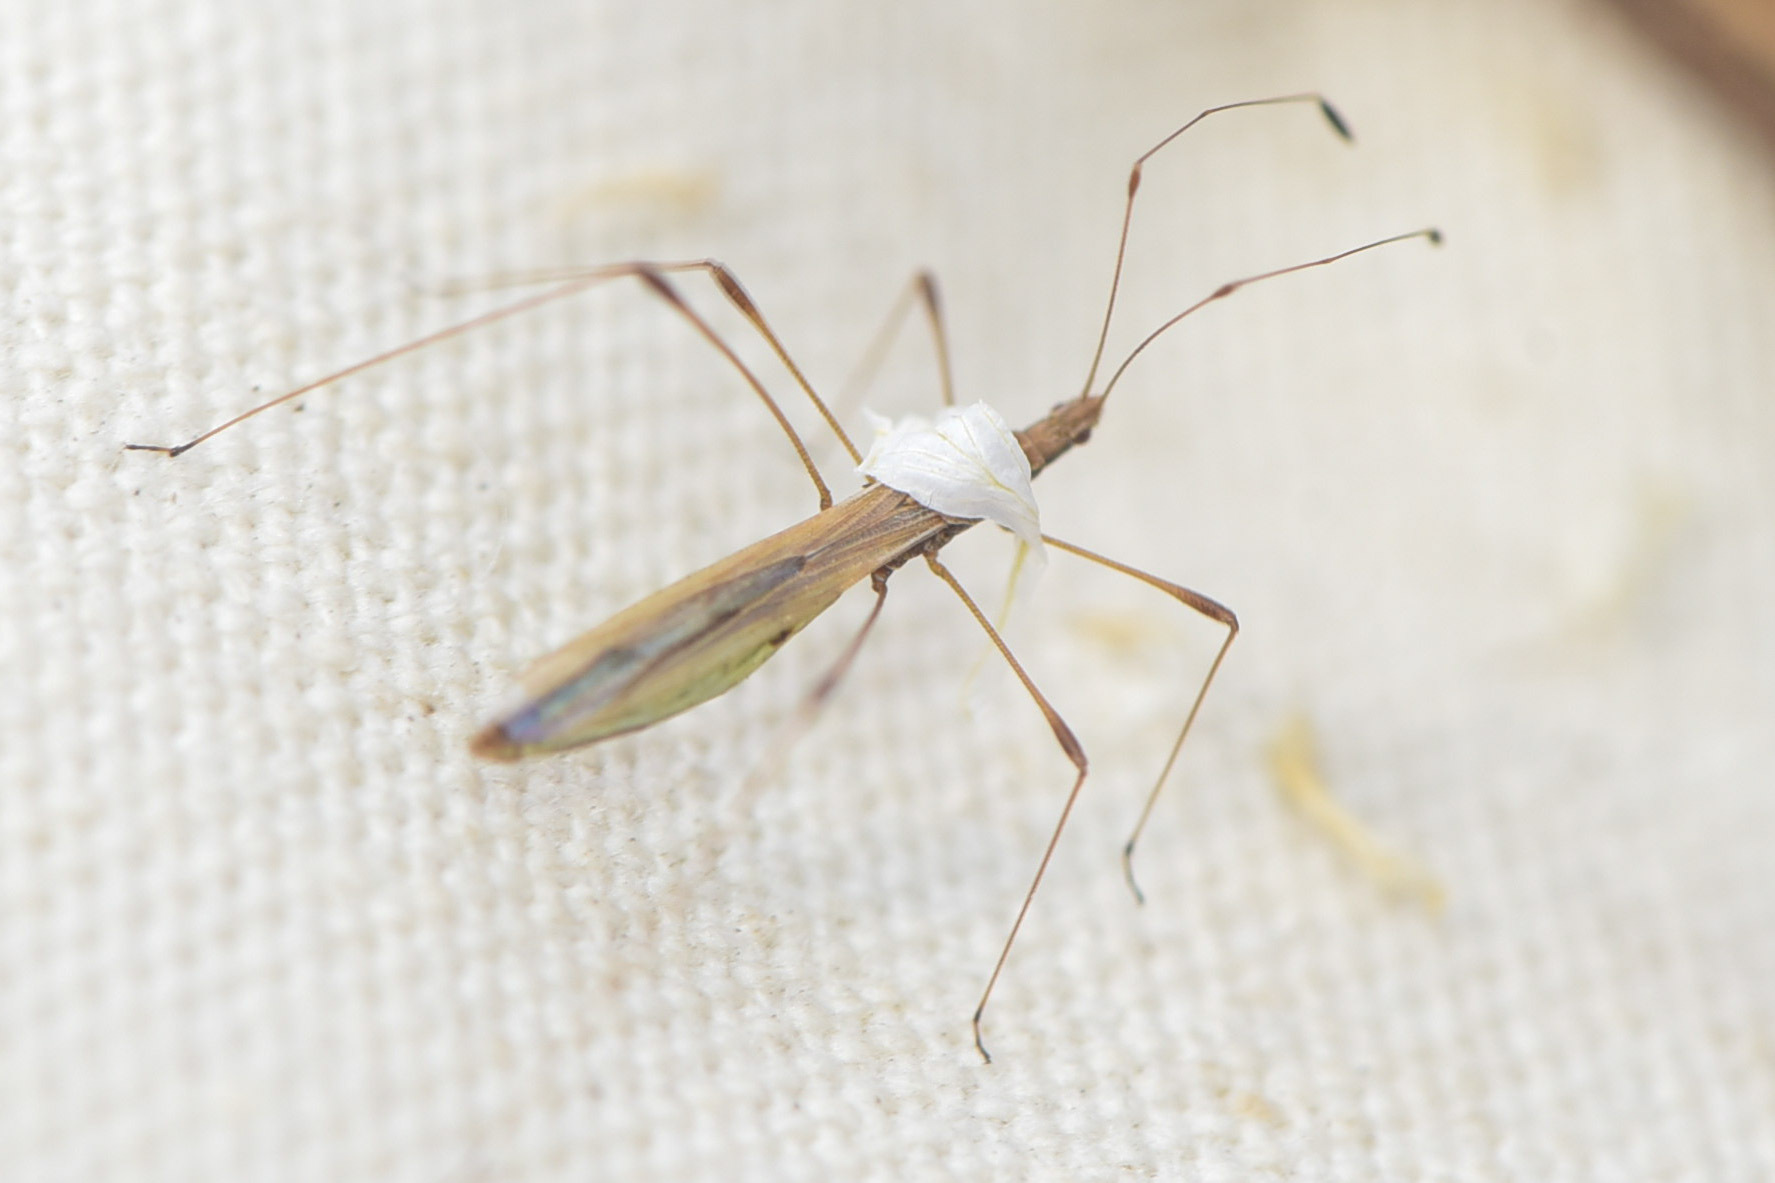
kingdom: Animalia
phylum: Arthropoda
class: Insecta
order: Hemiptera
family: Berytidae
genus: Neoneides
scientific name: Neoneides muticus
